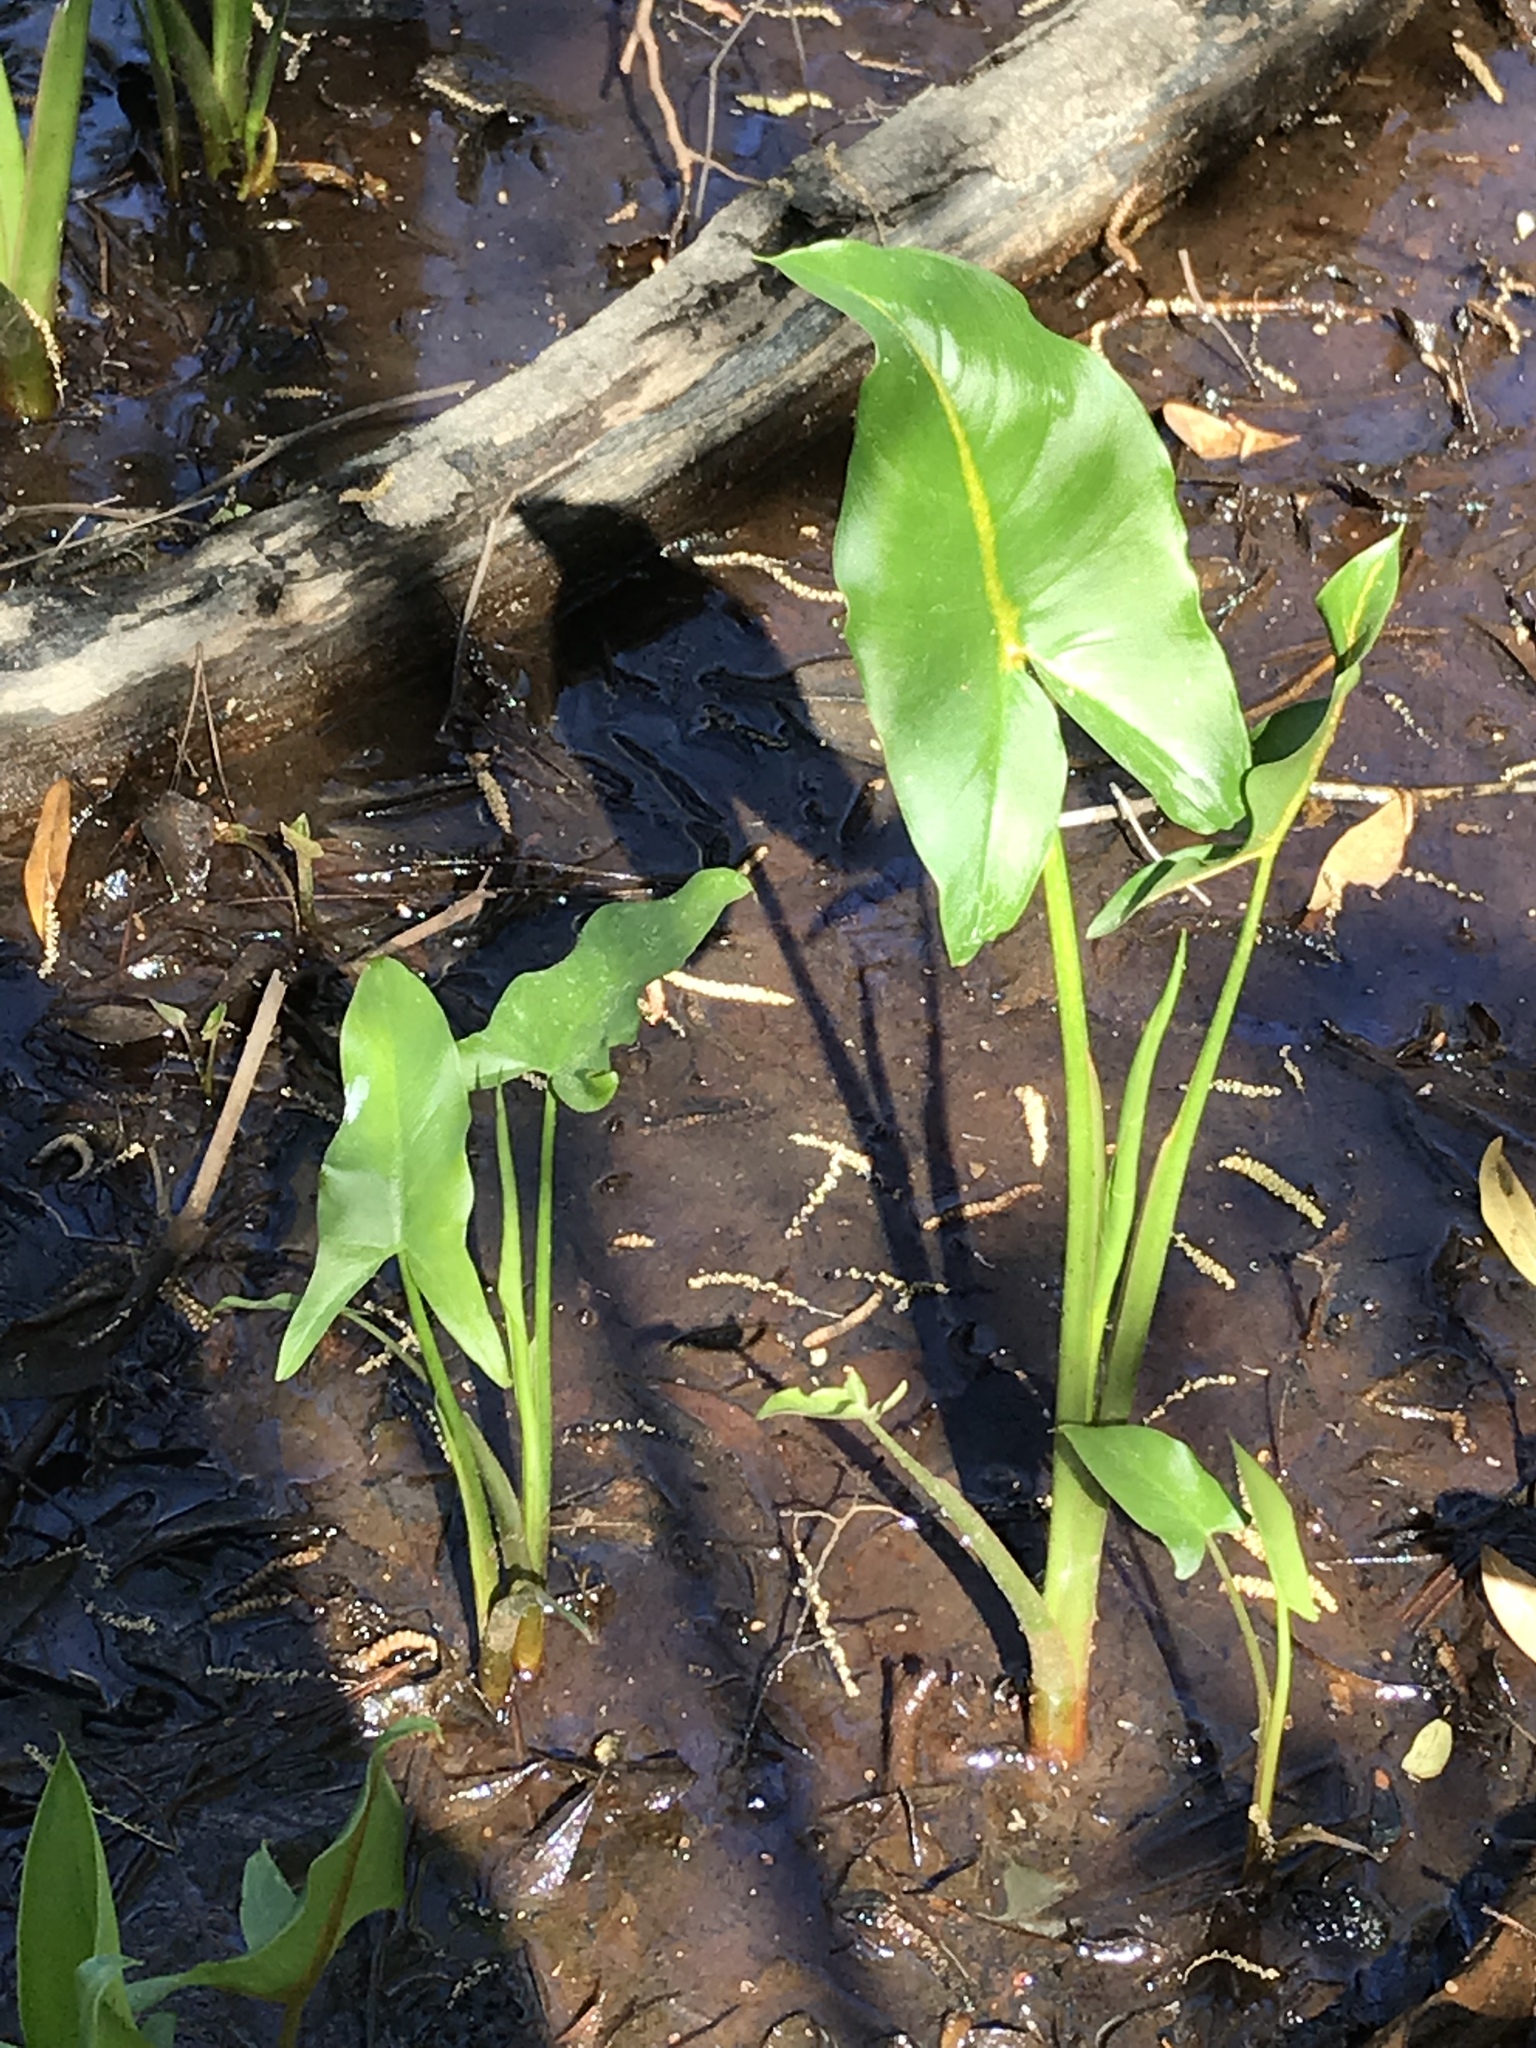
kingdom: Plantae
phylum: Tracheophyta
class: Liliopsida
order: Alismatales
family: Araceae
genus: Peltandra
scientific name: Peltandra virginica
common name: Arrow arum
